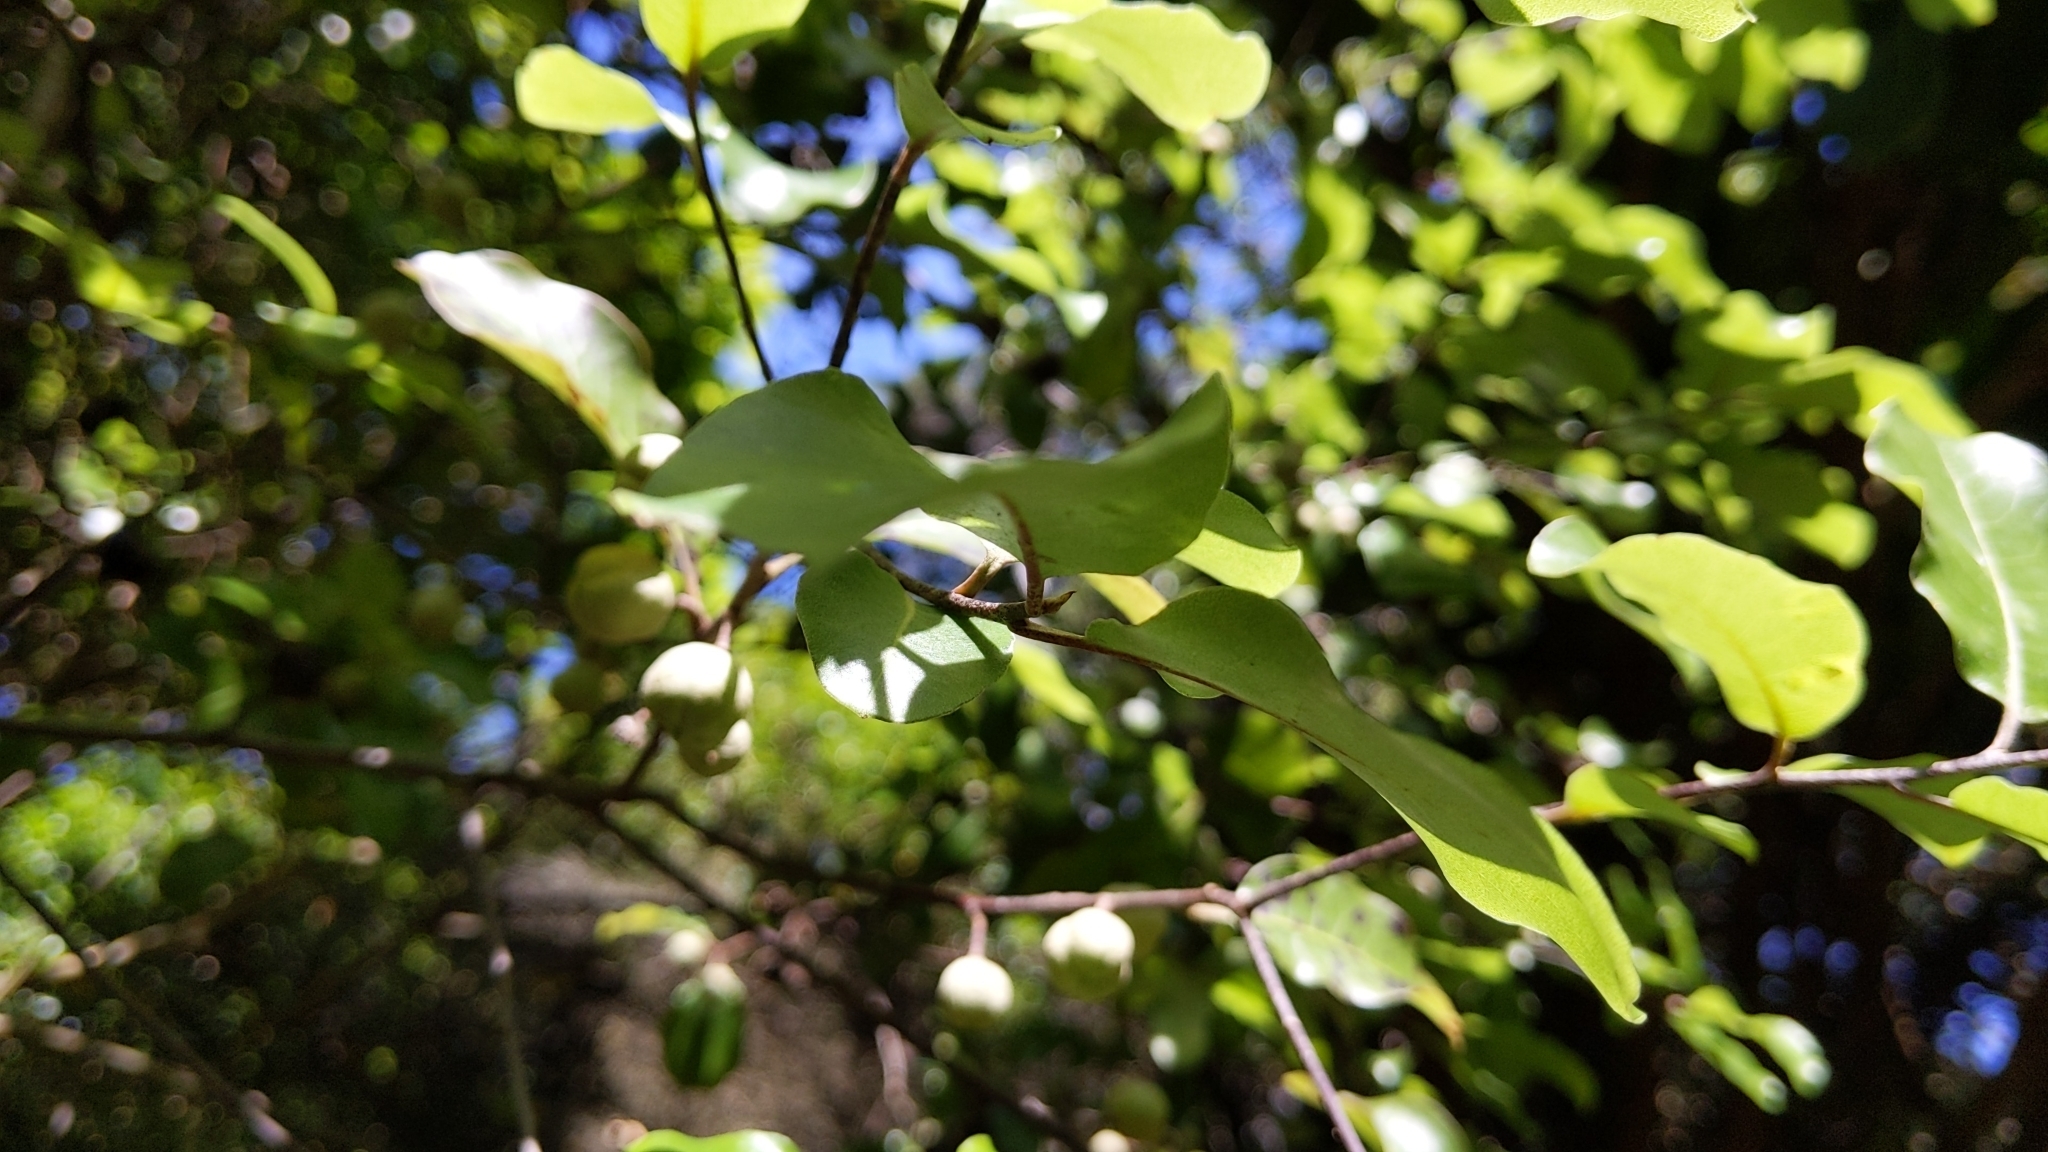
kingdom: Plantae
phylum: Tracheophyta
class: Magnoliopsida
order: Apiales
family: Pittosporaceae
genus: Pittosporum
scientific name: Pittosporum tenuifolium
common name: Kohuhu
